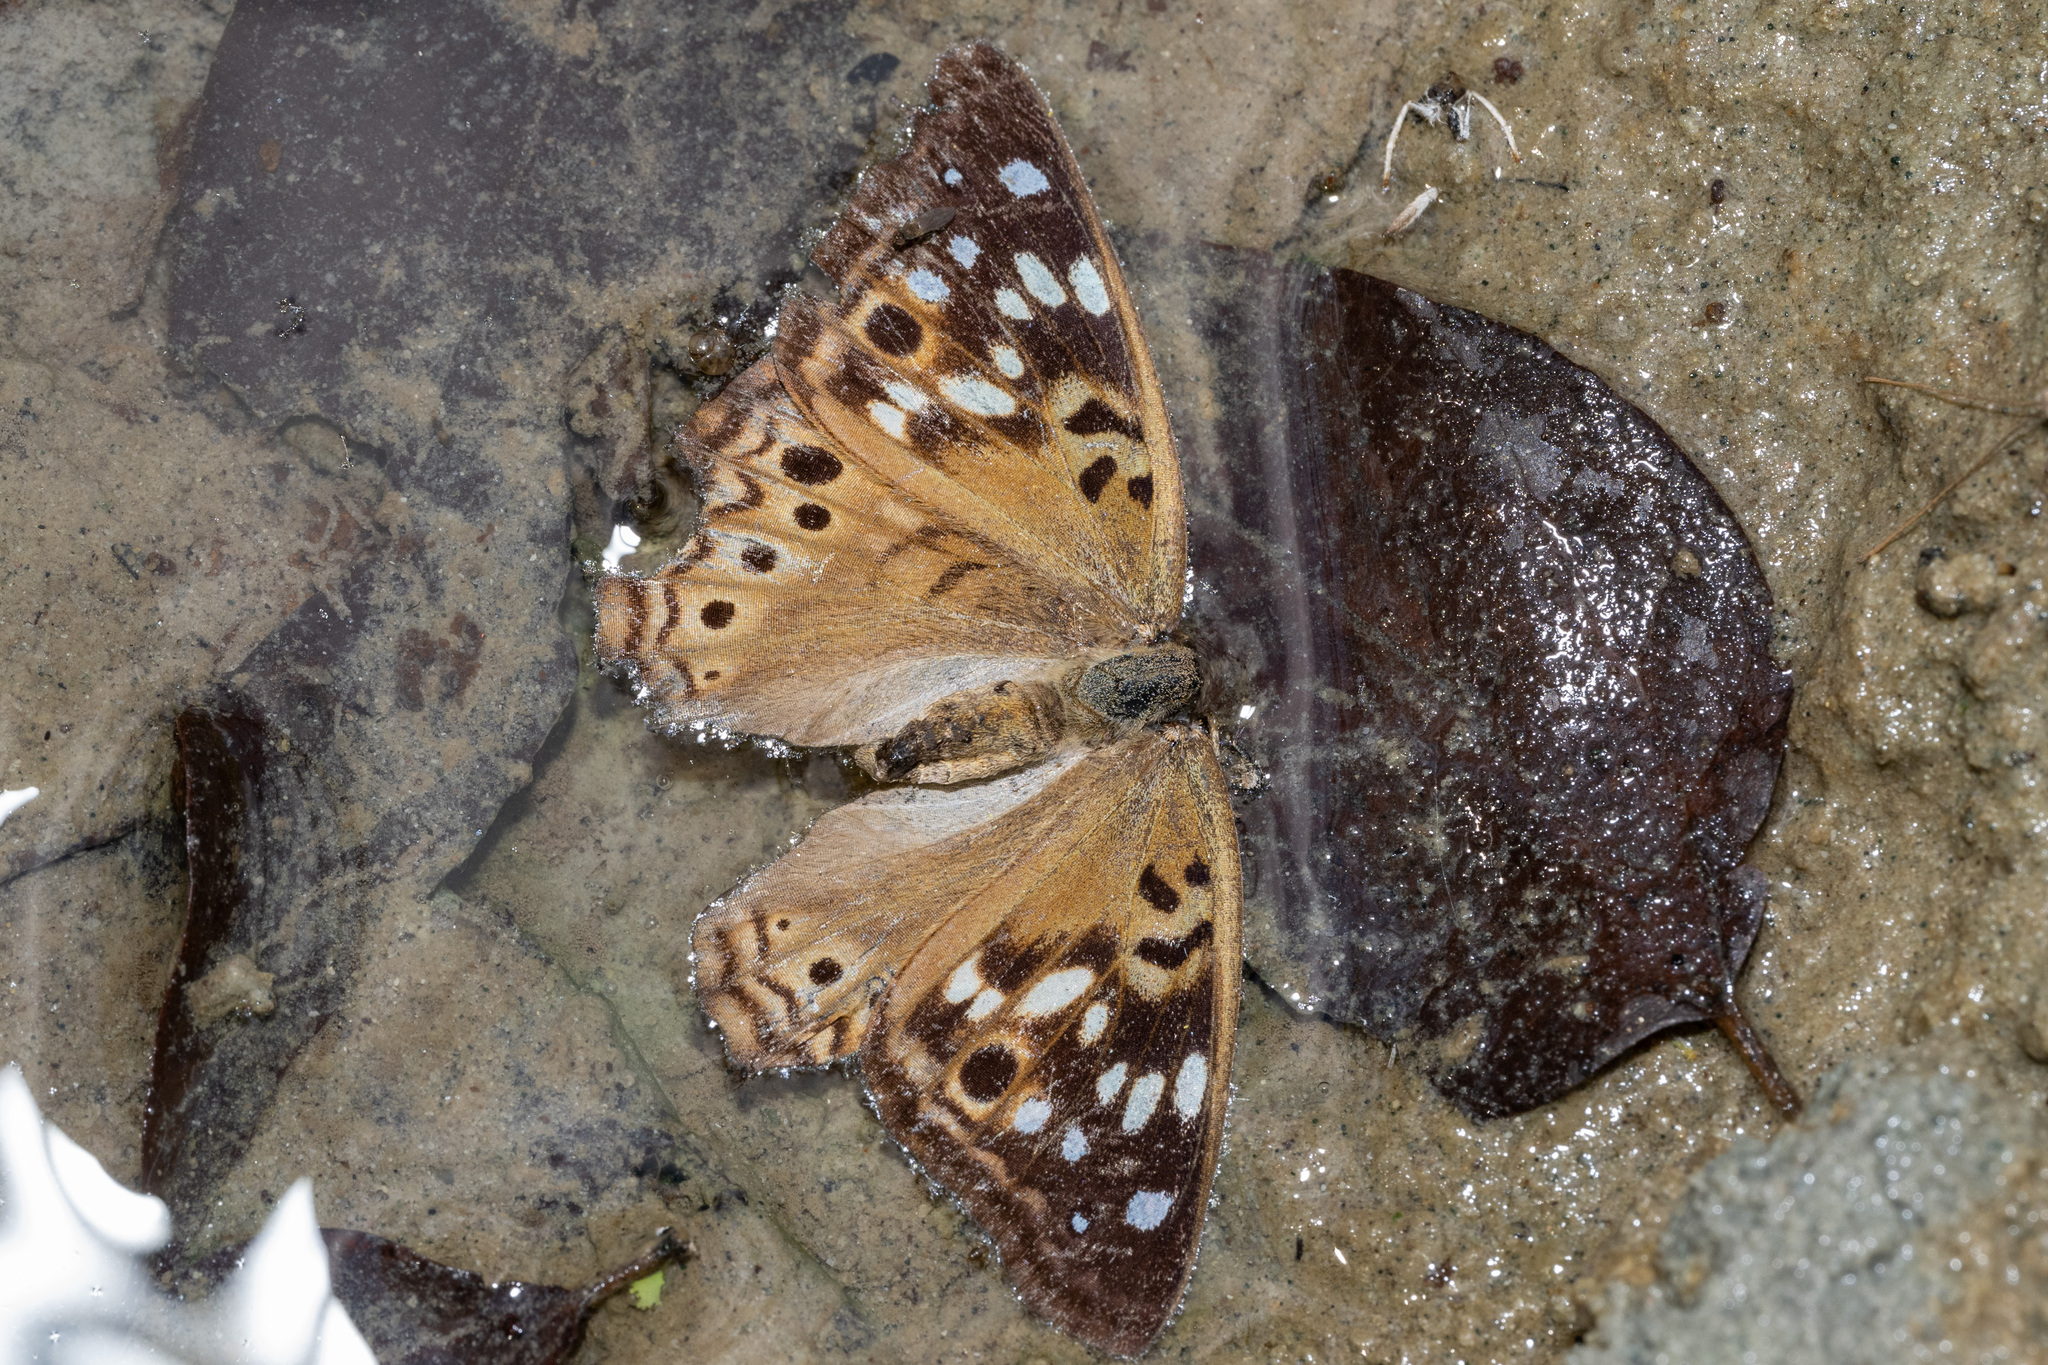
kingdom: Animalia
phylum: Arthropoda
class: Insecta
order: Lepidoptera
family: Nymphalidae
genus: Asterocampa
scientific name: Asterocampa celtis
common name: Hackberry emperor
